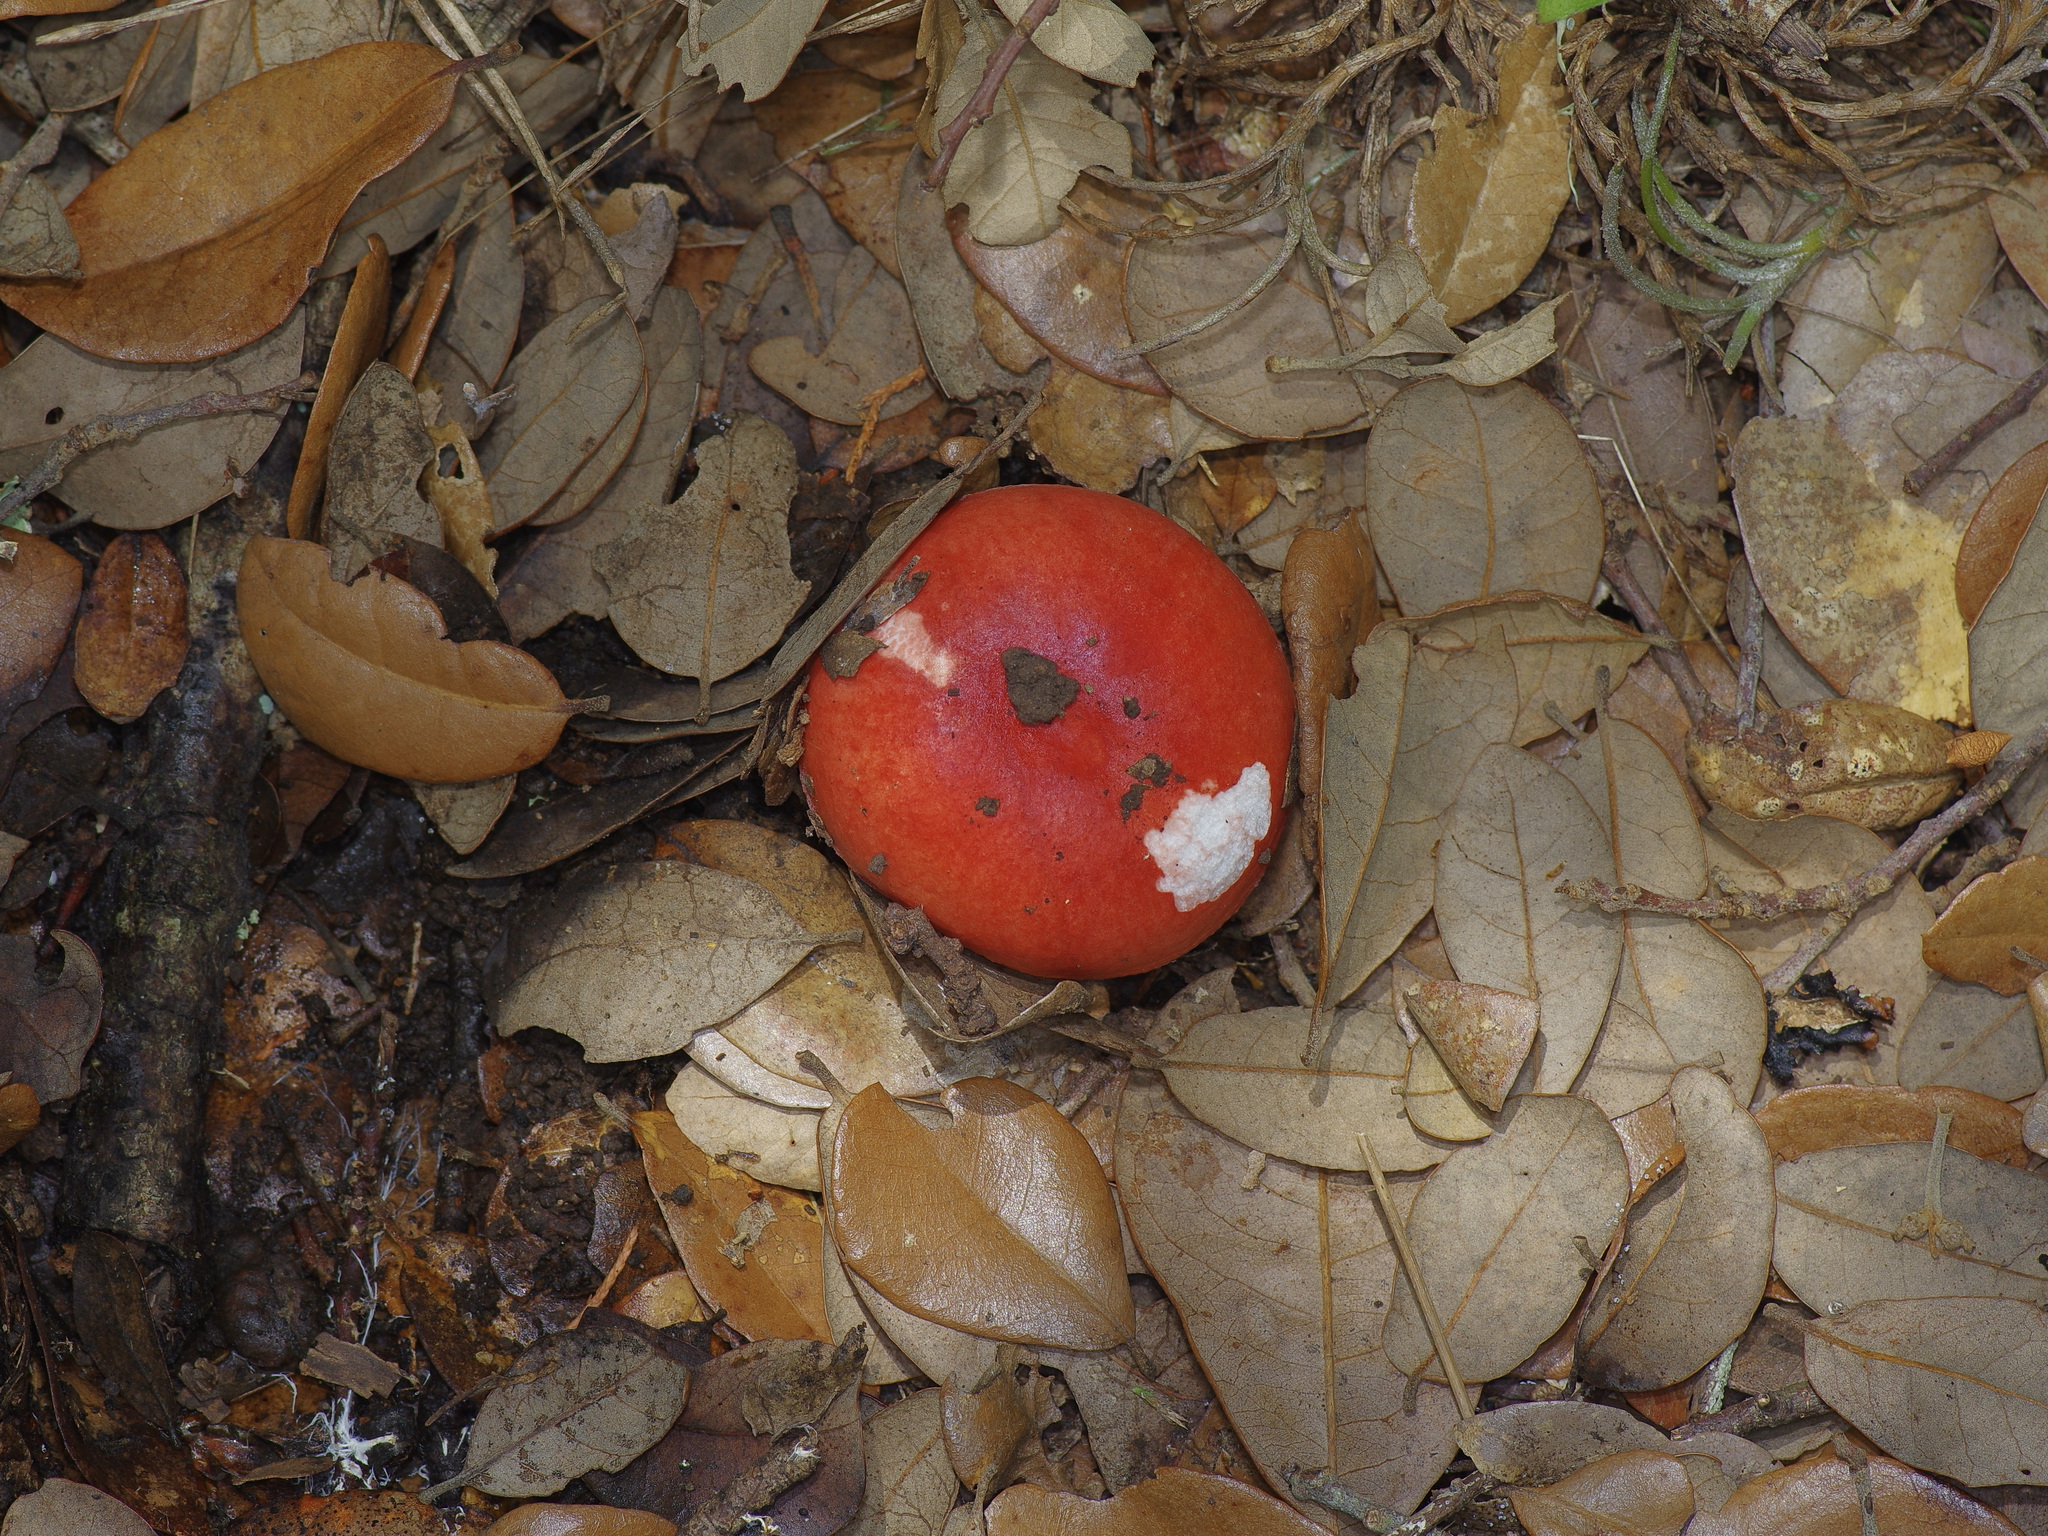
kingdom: Fungi
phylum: Basidiomycota
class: Agaricomycetes
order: Russulales
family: Russulaceae
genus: Russula
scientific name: Russula
